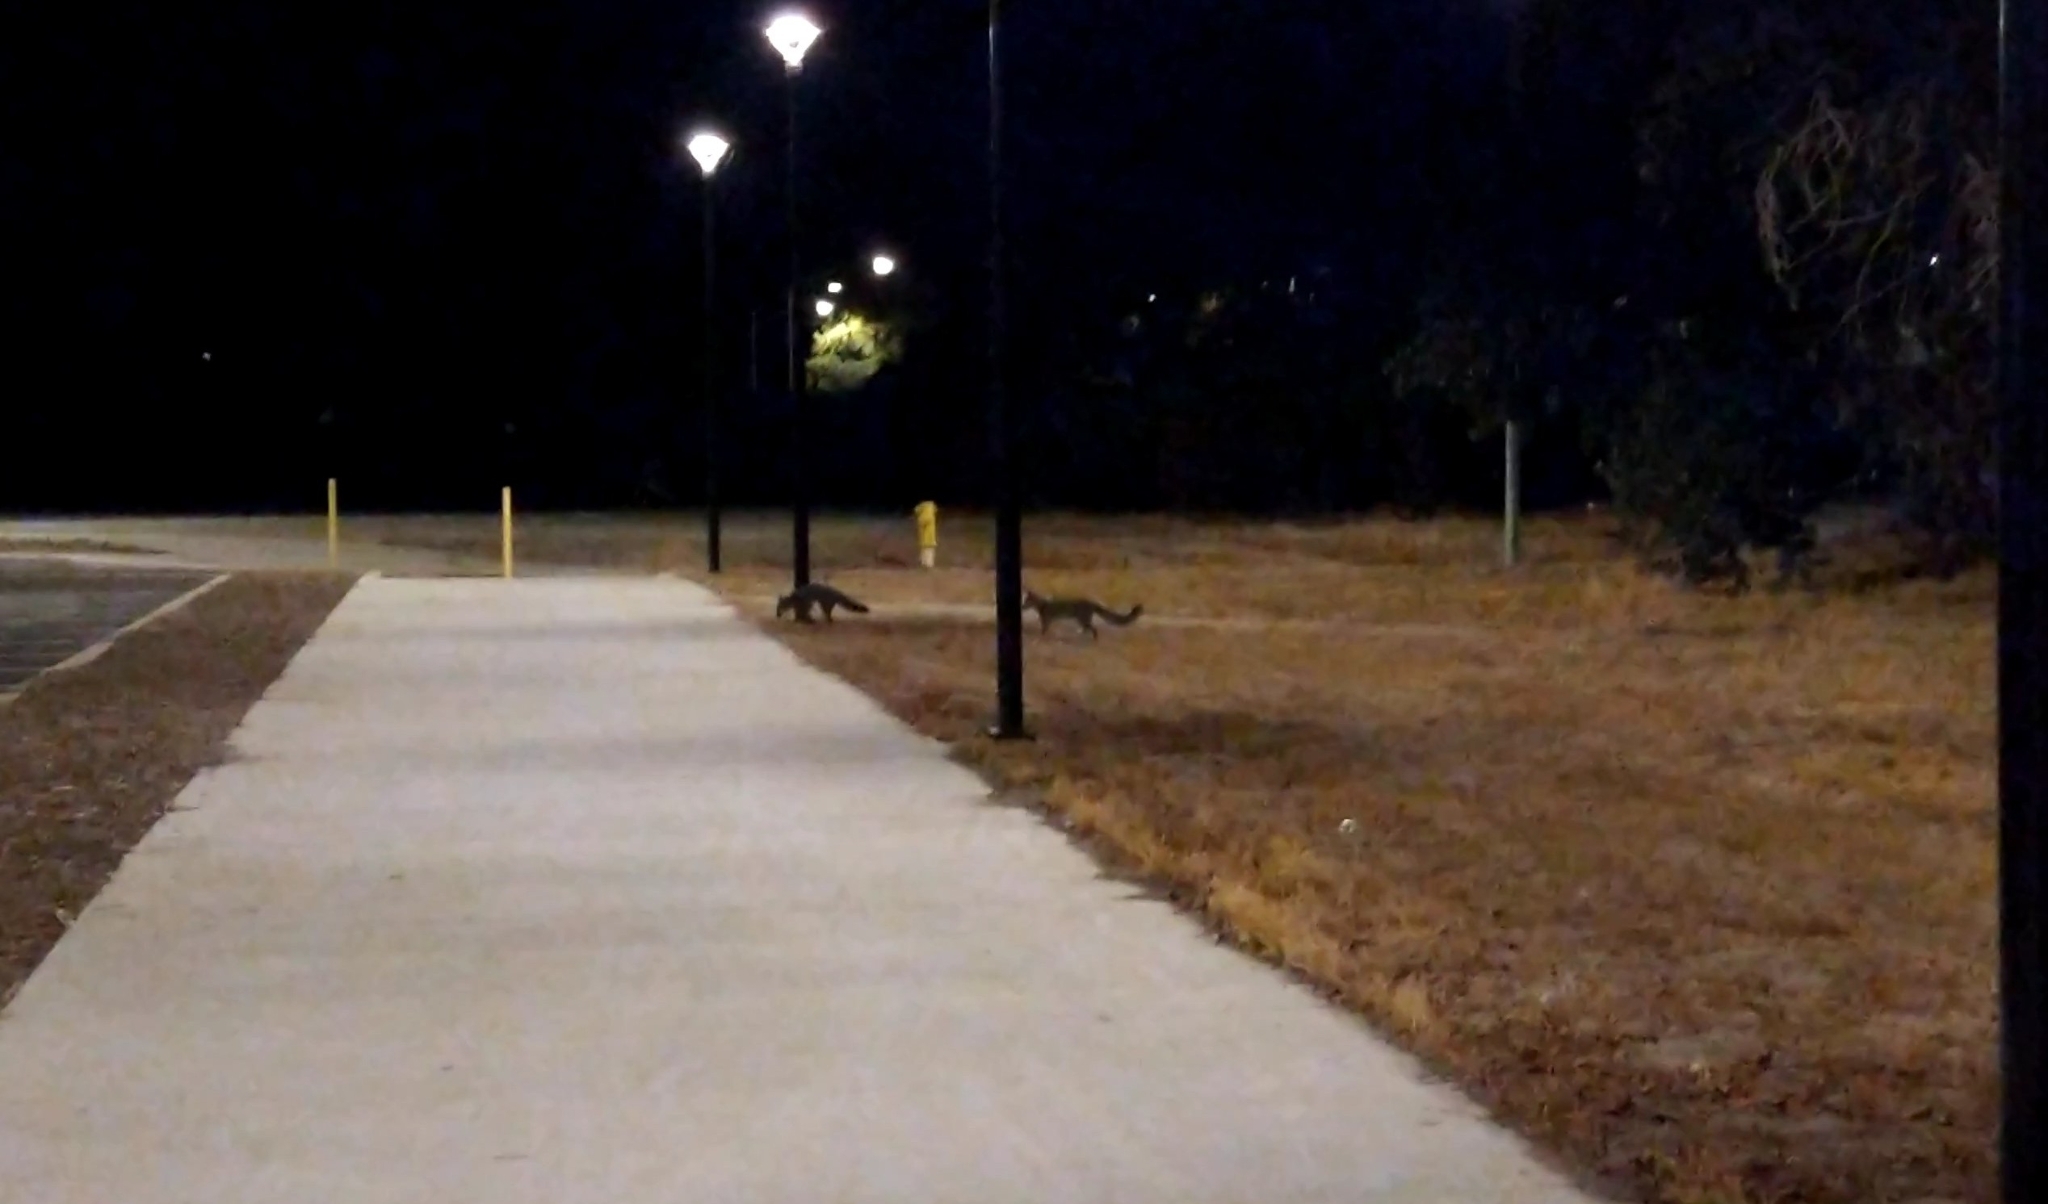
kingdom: Animalia
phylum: Chordata
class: Mammalia
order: Carnivora
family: Canidae
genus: Urocyon
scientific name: Urocyon cinereoargenteus
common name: Gray fox
